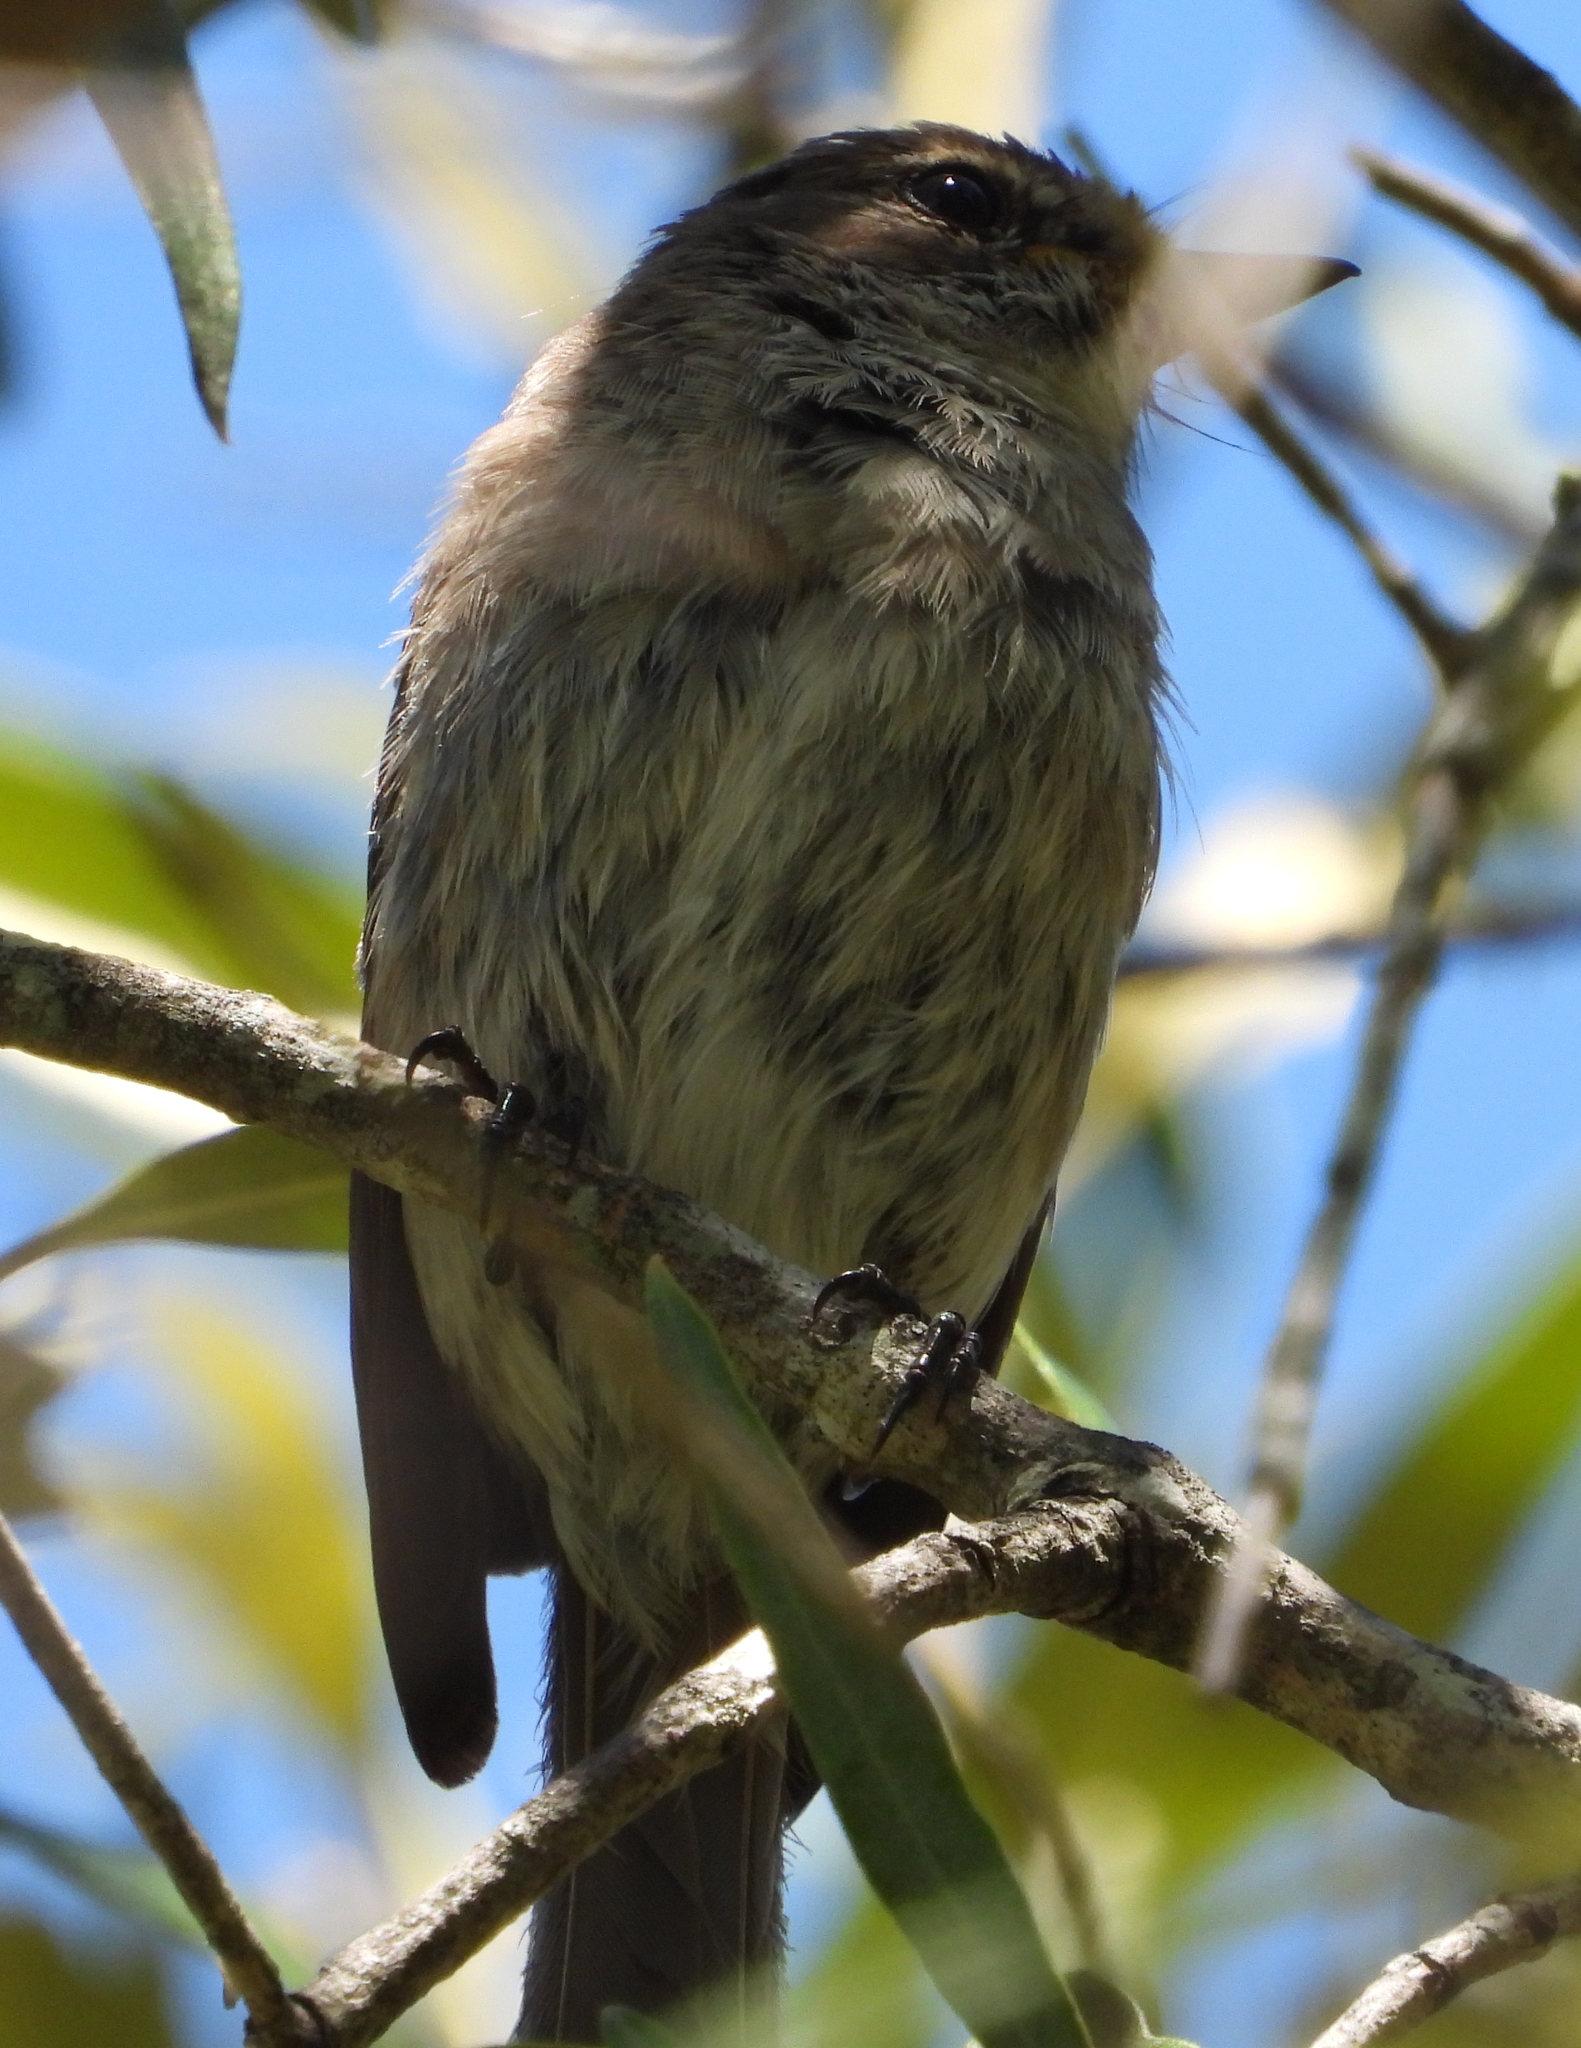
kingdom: Animalia
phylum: Chordata
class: Aves
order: Passeriformes
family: Muscicapidae
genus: Muscicapa
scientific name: Muscicapa adusta
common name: African dusky flycatcher
